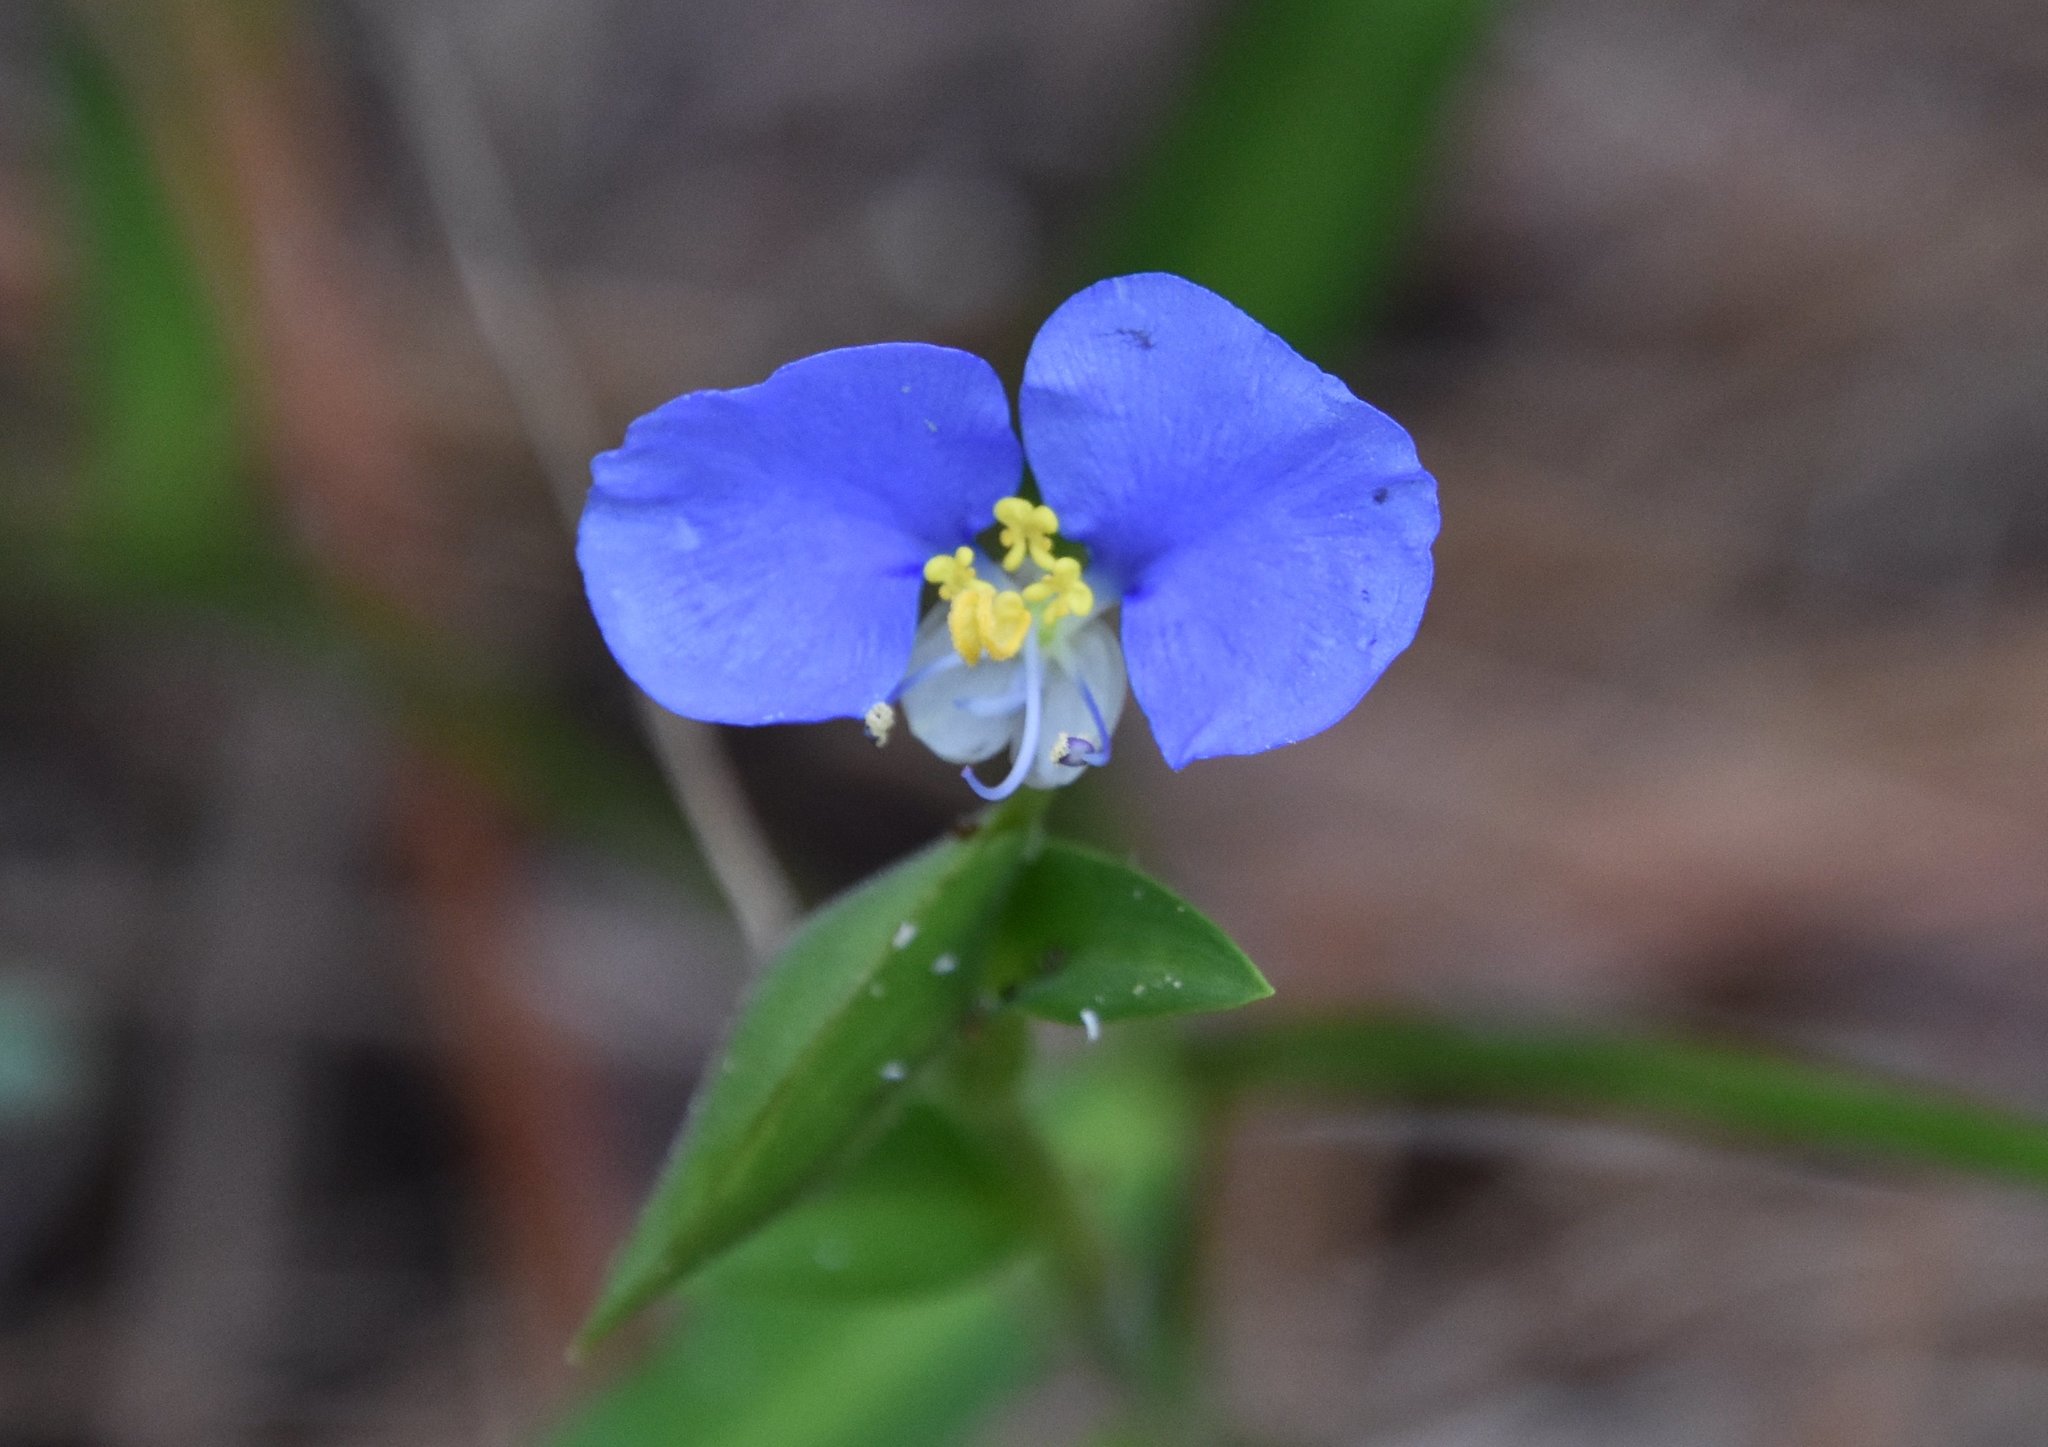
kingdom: Plantae
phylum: Tracheophyta
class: Liliopsida
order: Commelinales
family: Commelinaceae
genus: Commelina
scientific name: Commelina erecta
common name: Blousel blommetjie
